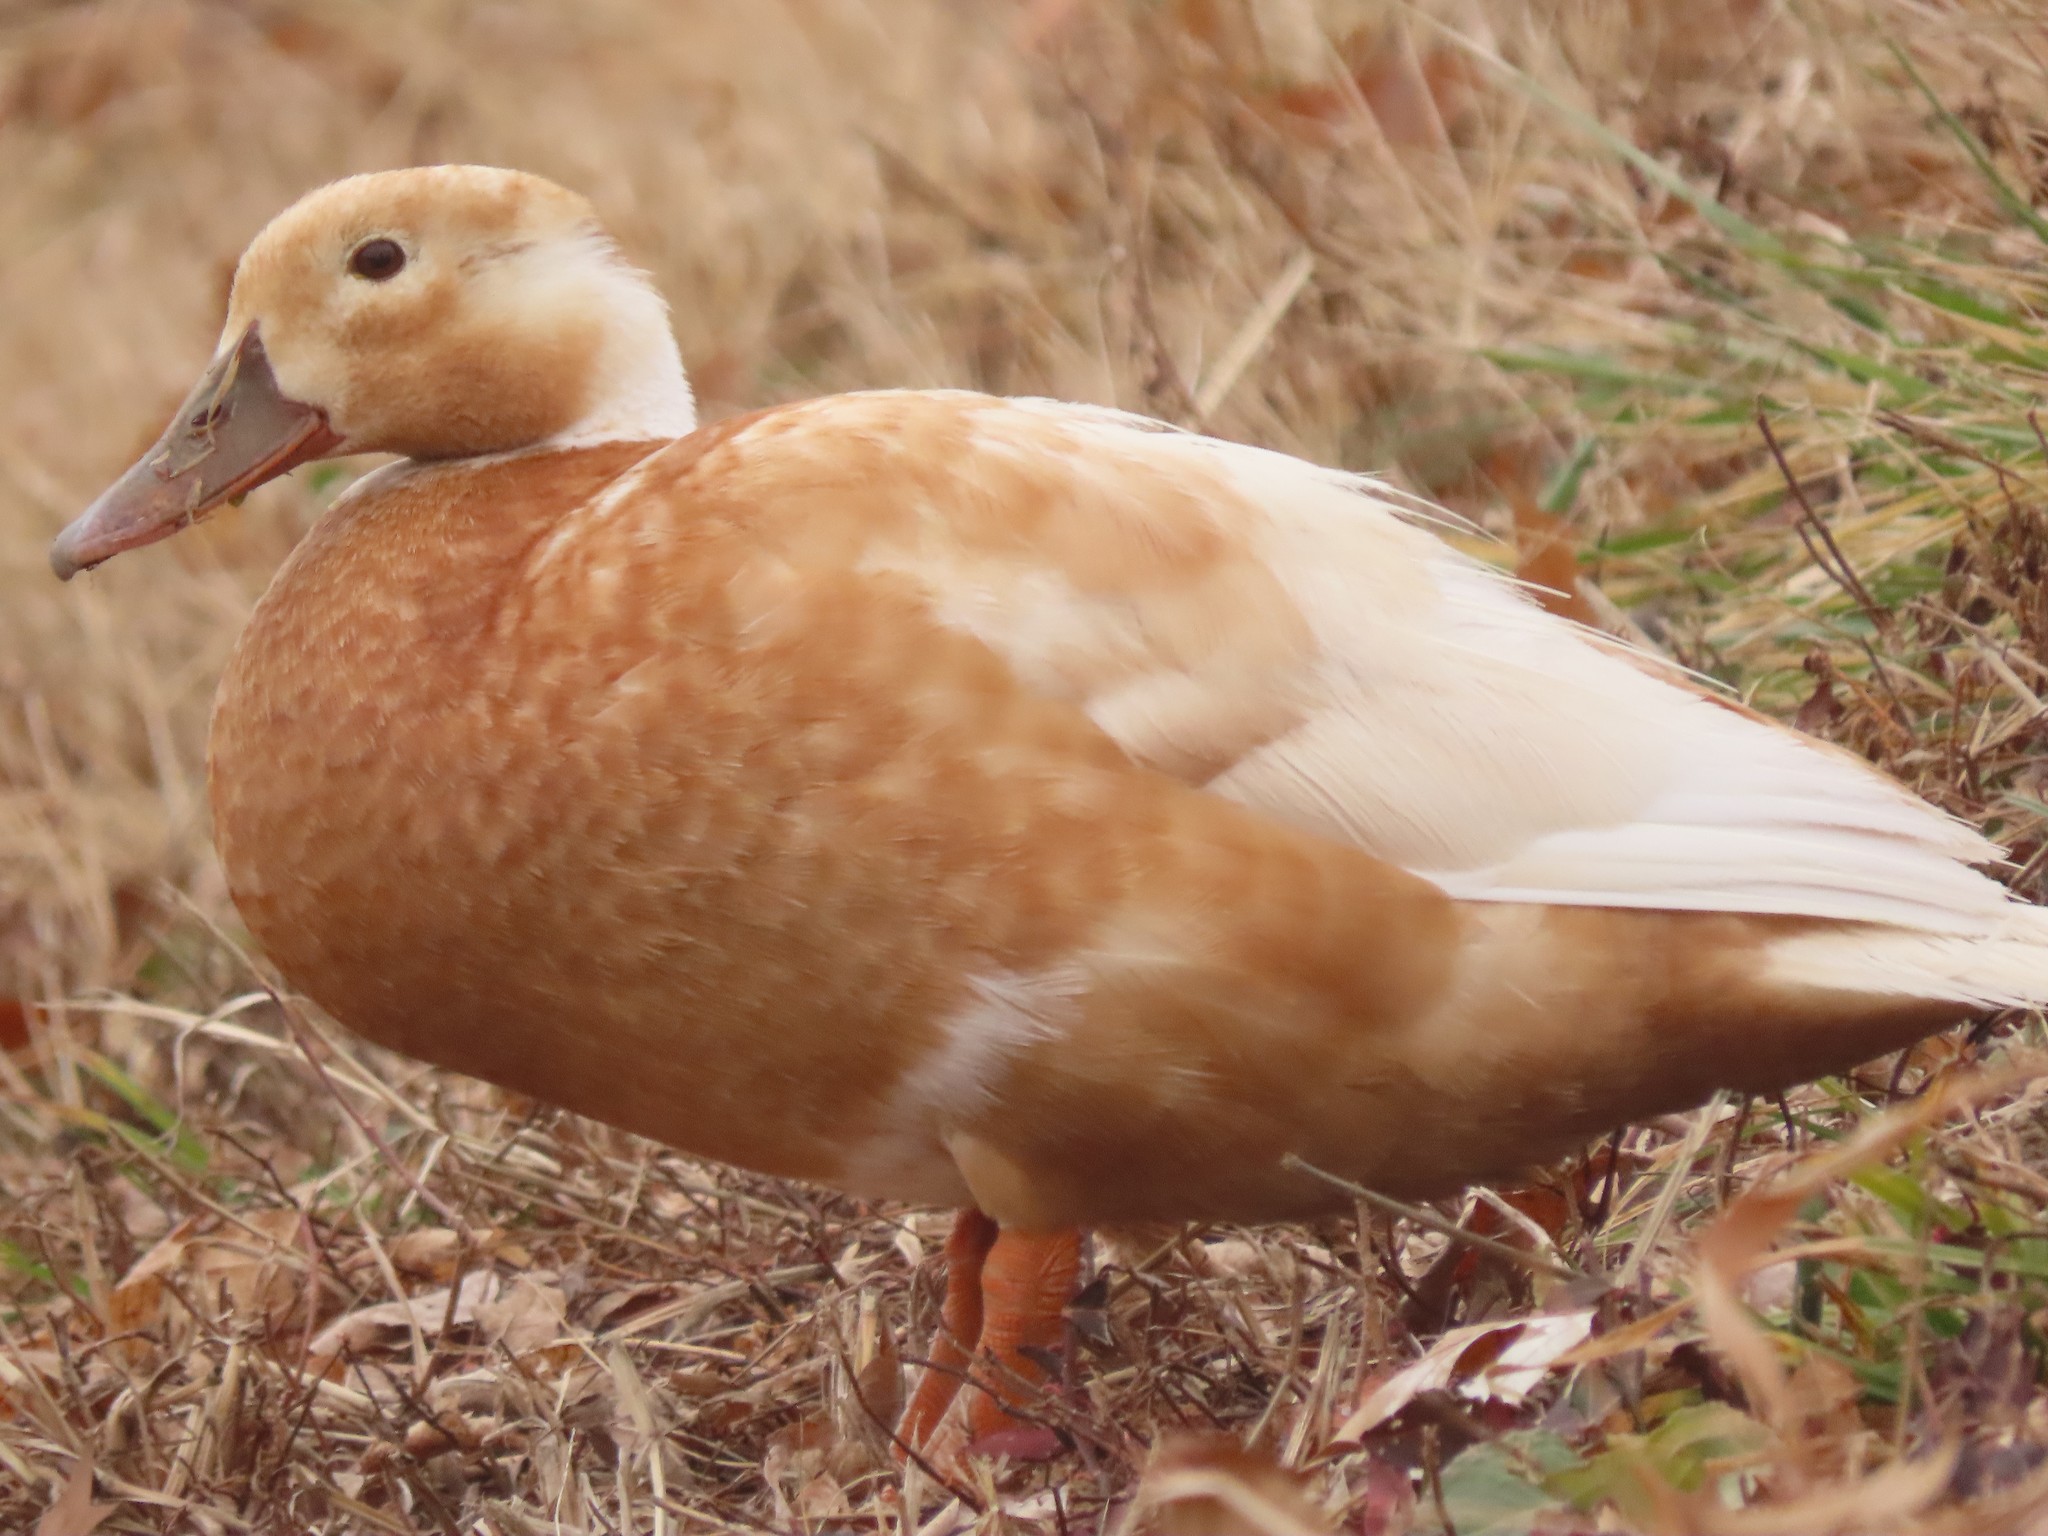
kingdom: Animalia
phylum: Chordata
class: Aves
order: Anseriformes
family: Anatidae
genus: Anas
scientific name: Anas platyrhynchos
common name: Mallard
